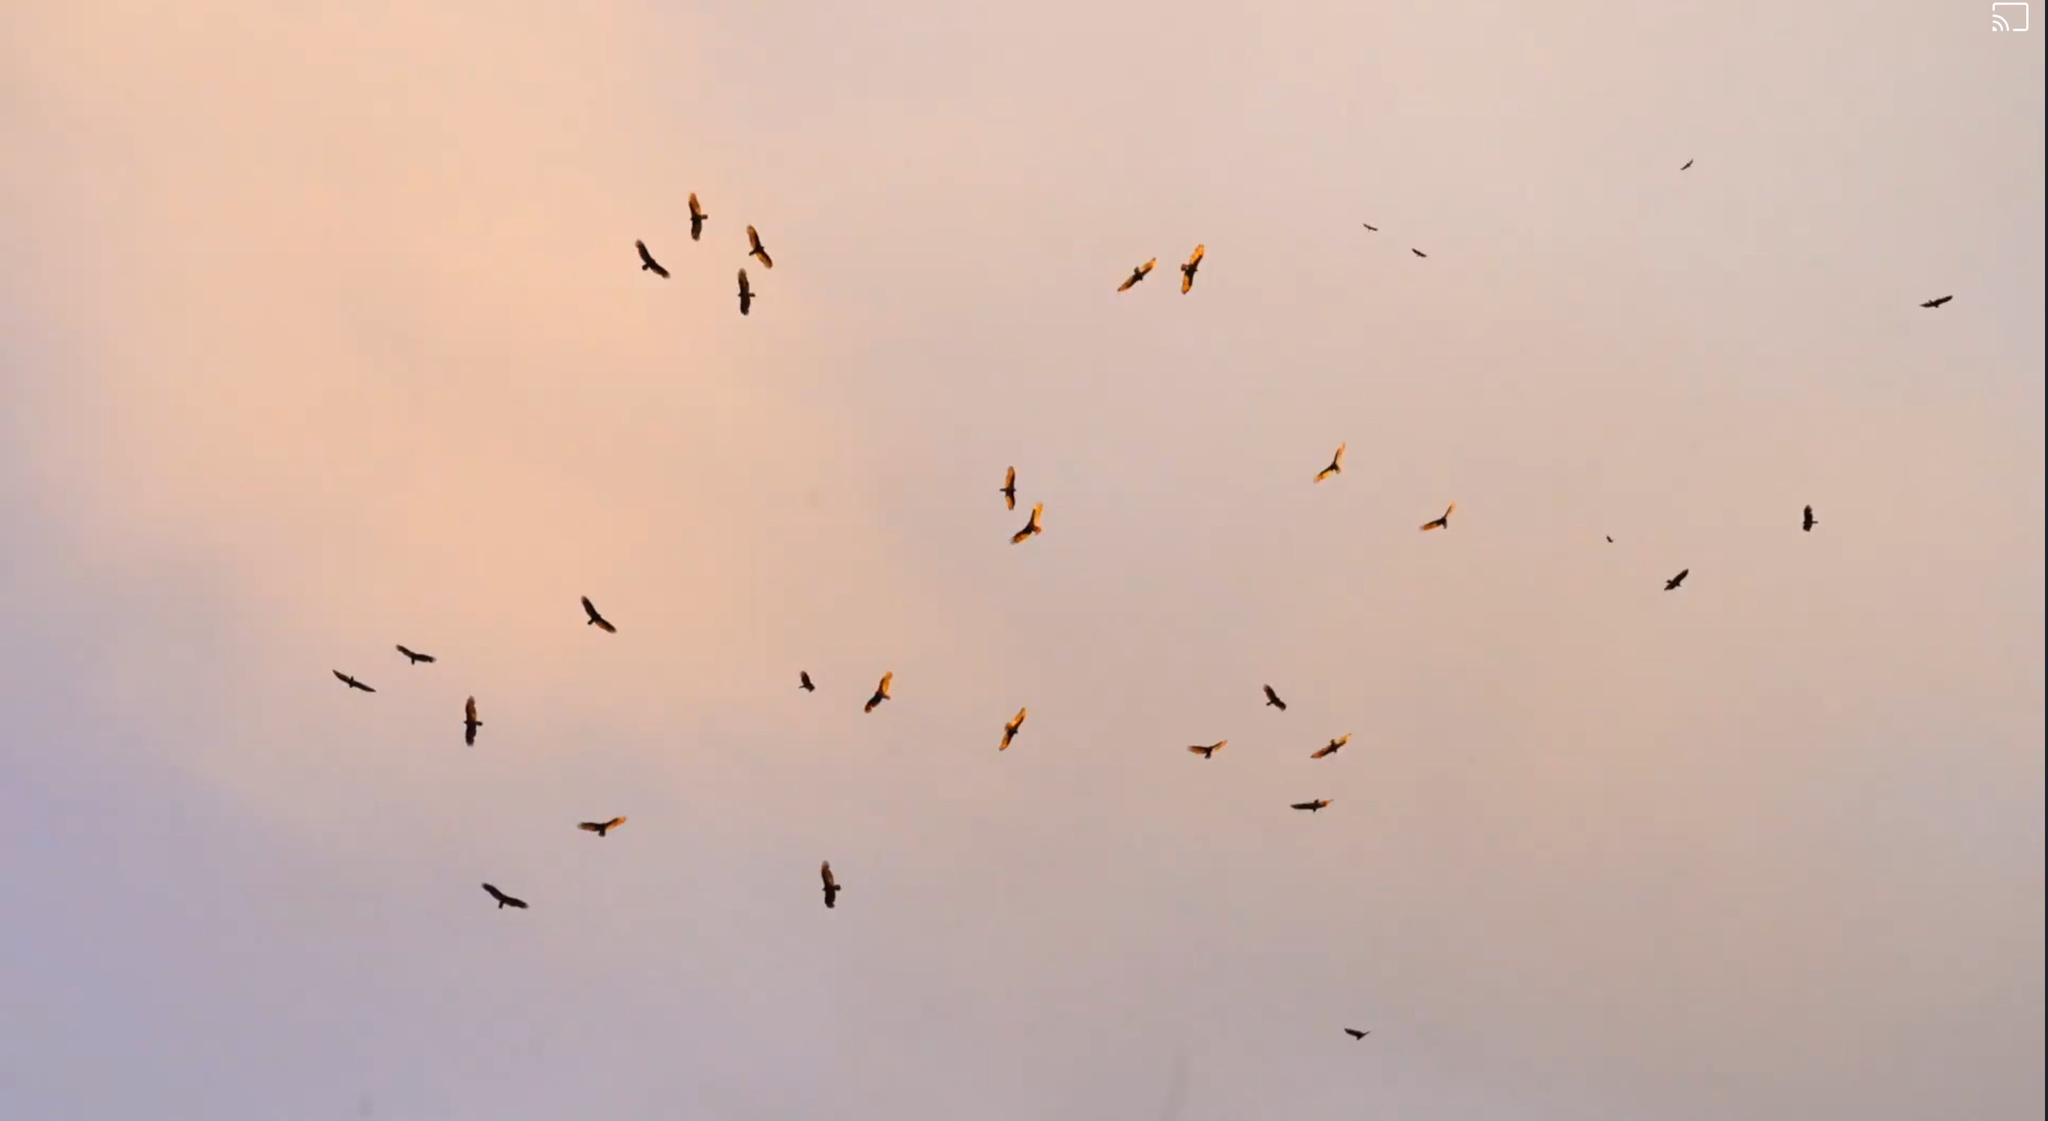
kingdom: Animalia
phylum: Chordata
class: Aves
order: Accipitriformes
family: Cathartidae
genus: Cathartes
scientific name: Cathartes aura
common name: Turkey vulture
